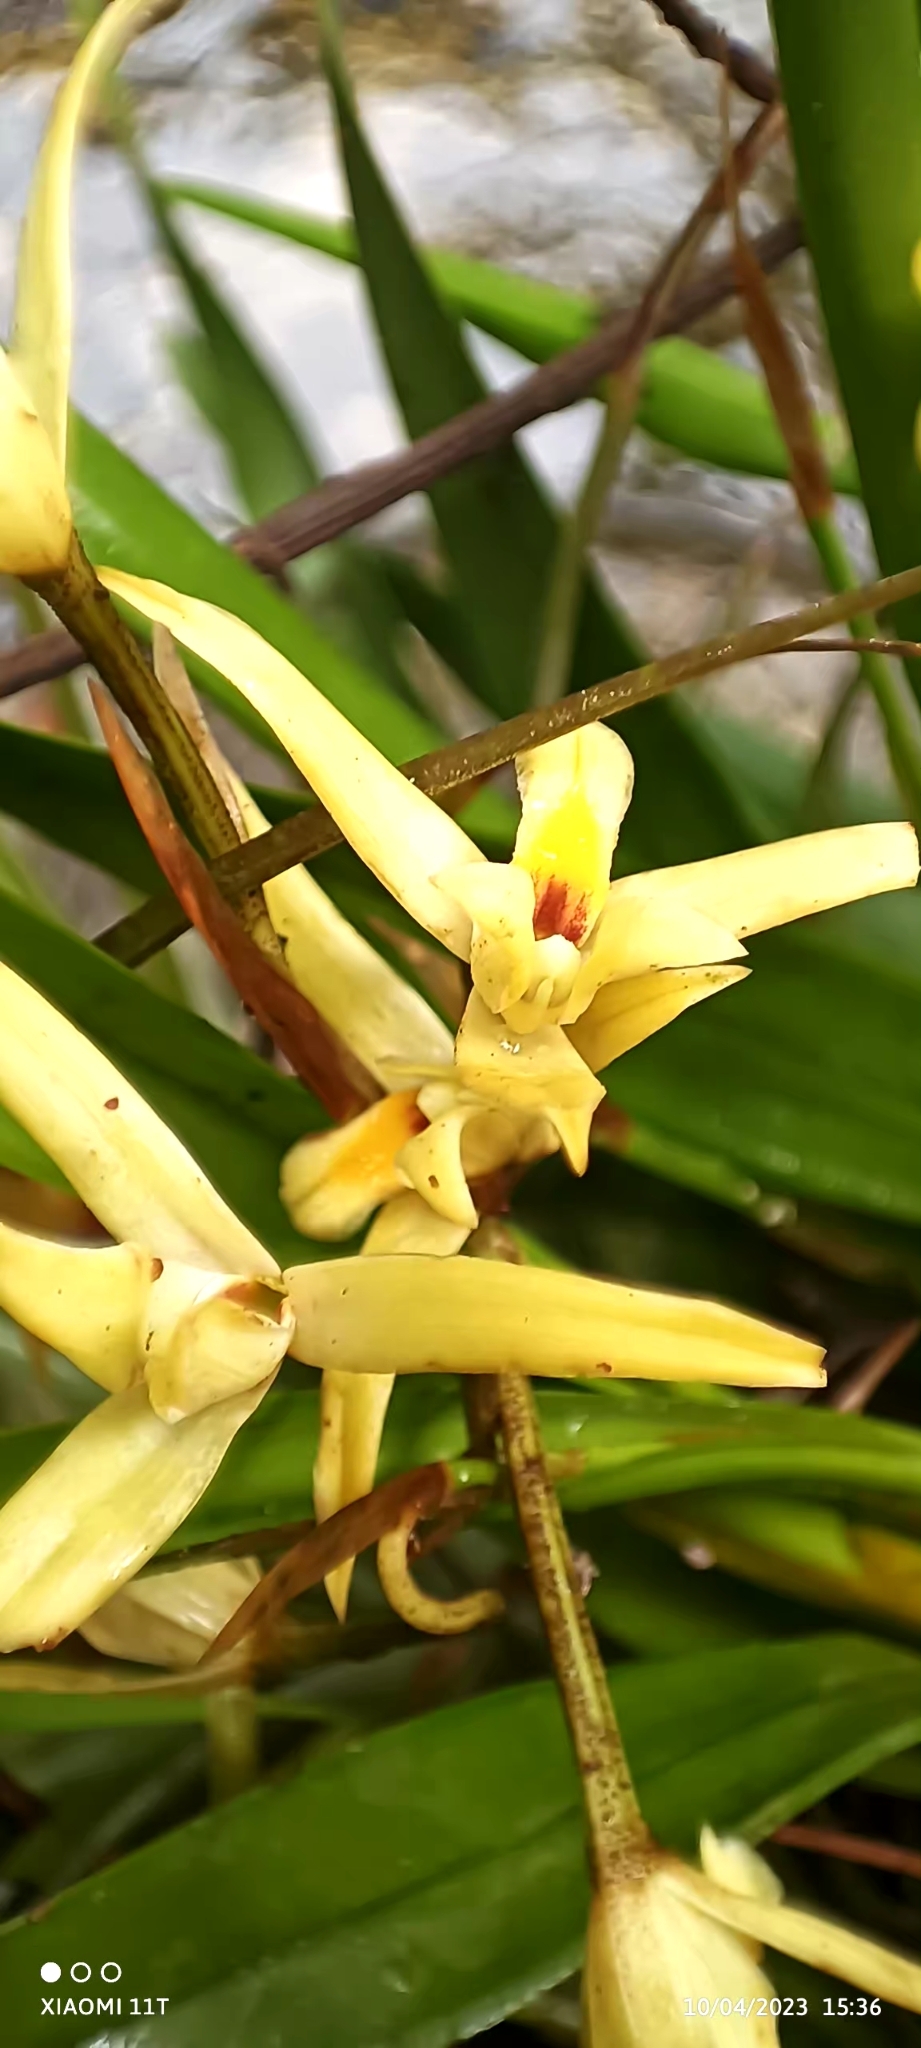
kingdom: Plantae
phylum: Tracheophyta
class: Liliopsida
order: Asparagales
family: Orchidaceae
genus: Nidema
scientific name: Nidema boothii
